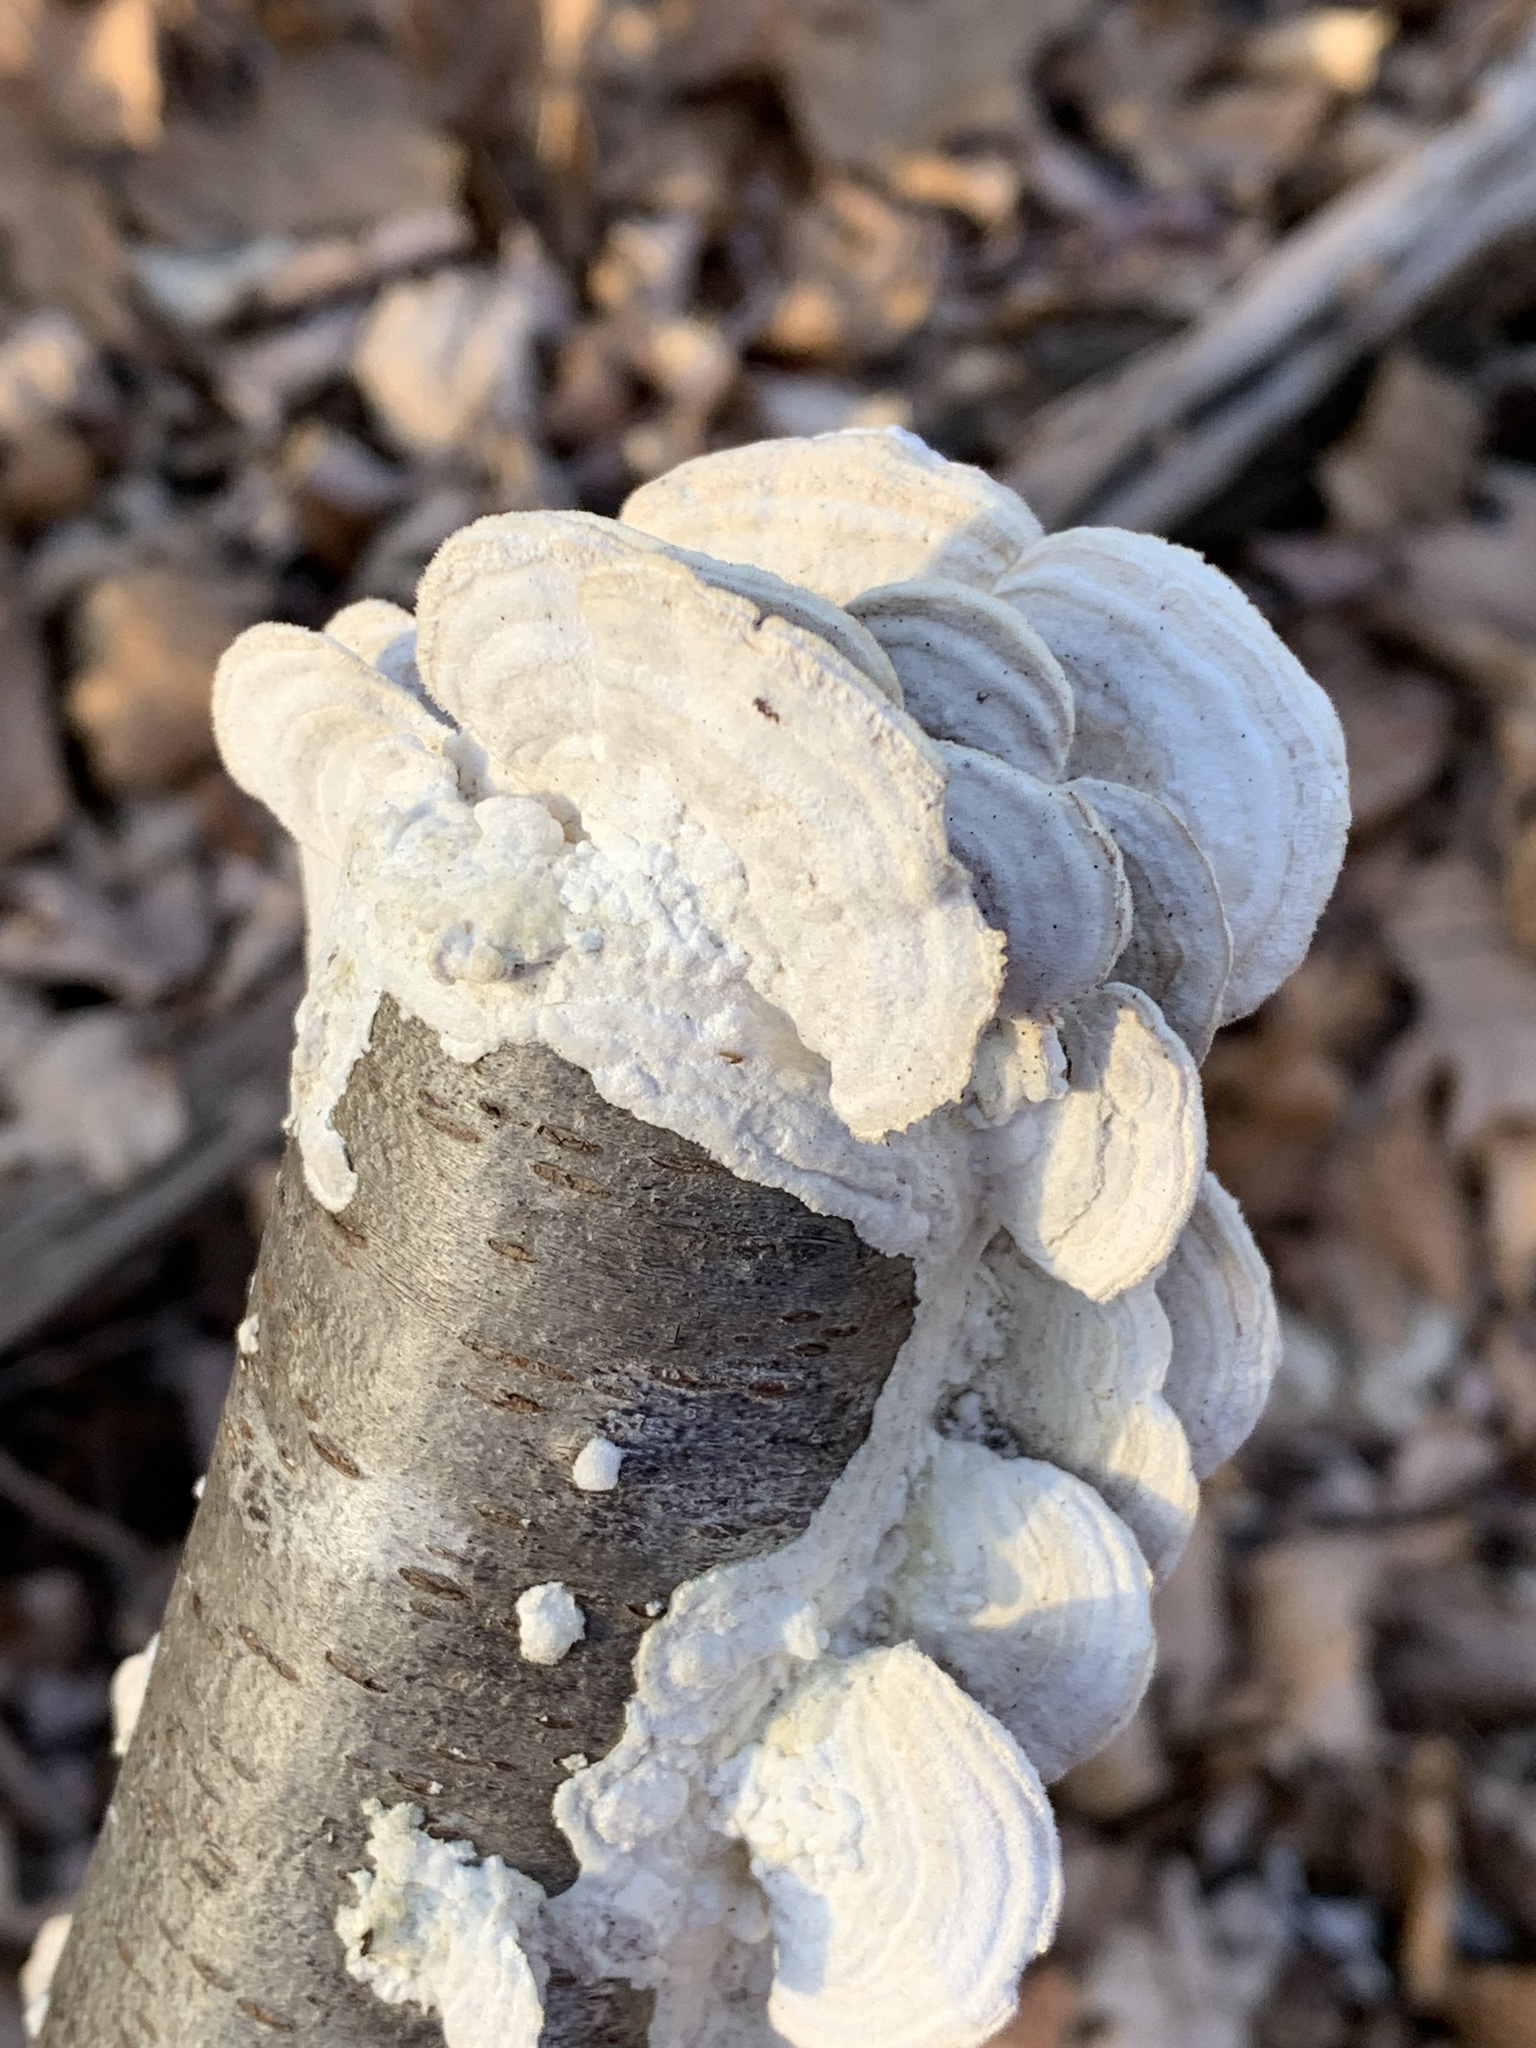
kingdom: Fungi
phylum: Basidiomycota
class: Agaricomycetes
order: Hymenochaetales
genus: Trichaptum
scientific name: Trichaptum biforme
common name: Violet-toothed polypore
